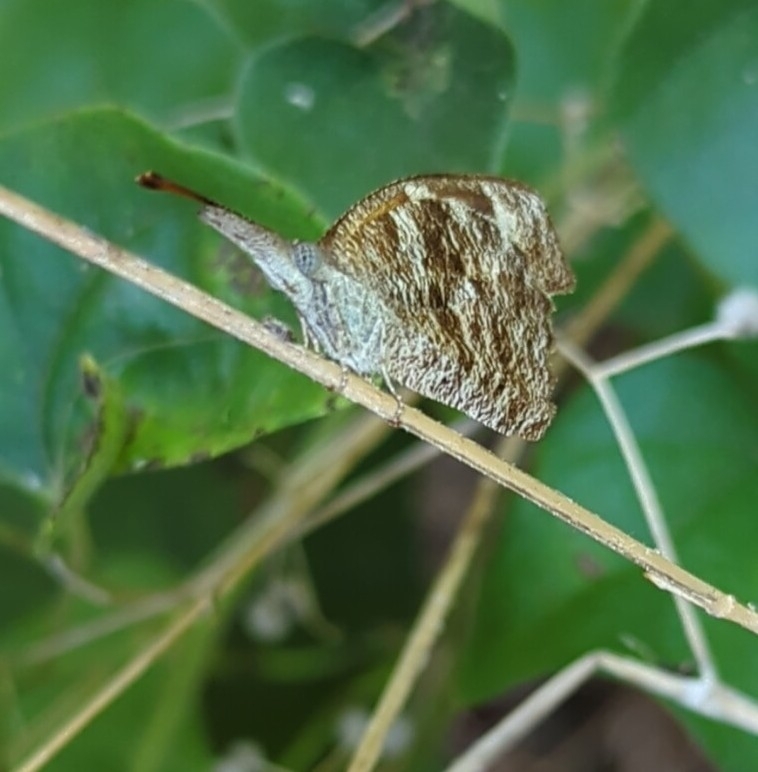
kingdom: Animalia
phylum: Arthropoda
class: Insecta
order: Lepidoptera
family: Nymphalidae
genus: Libytheana
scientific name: Libytheana carinenta
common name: American snout
